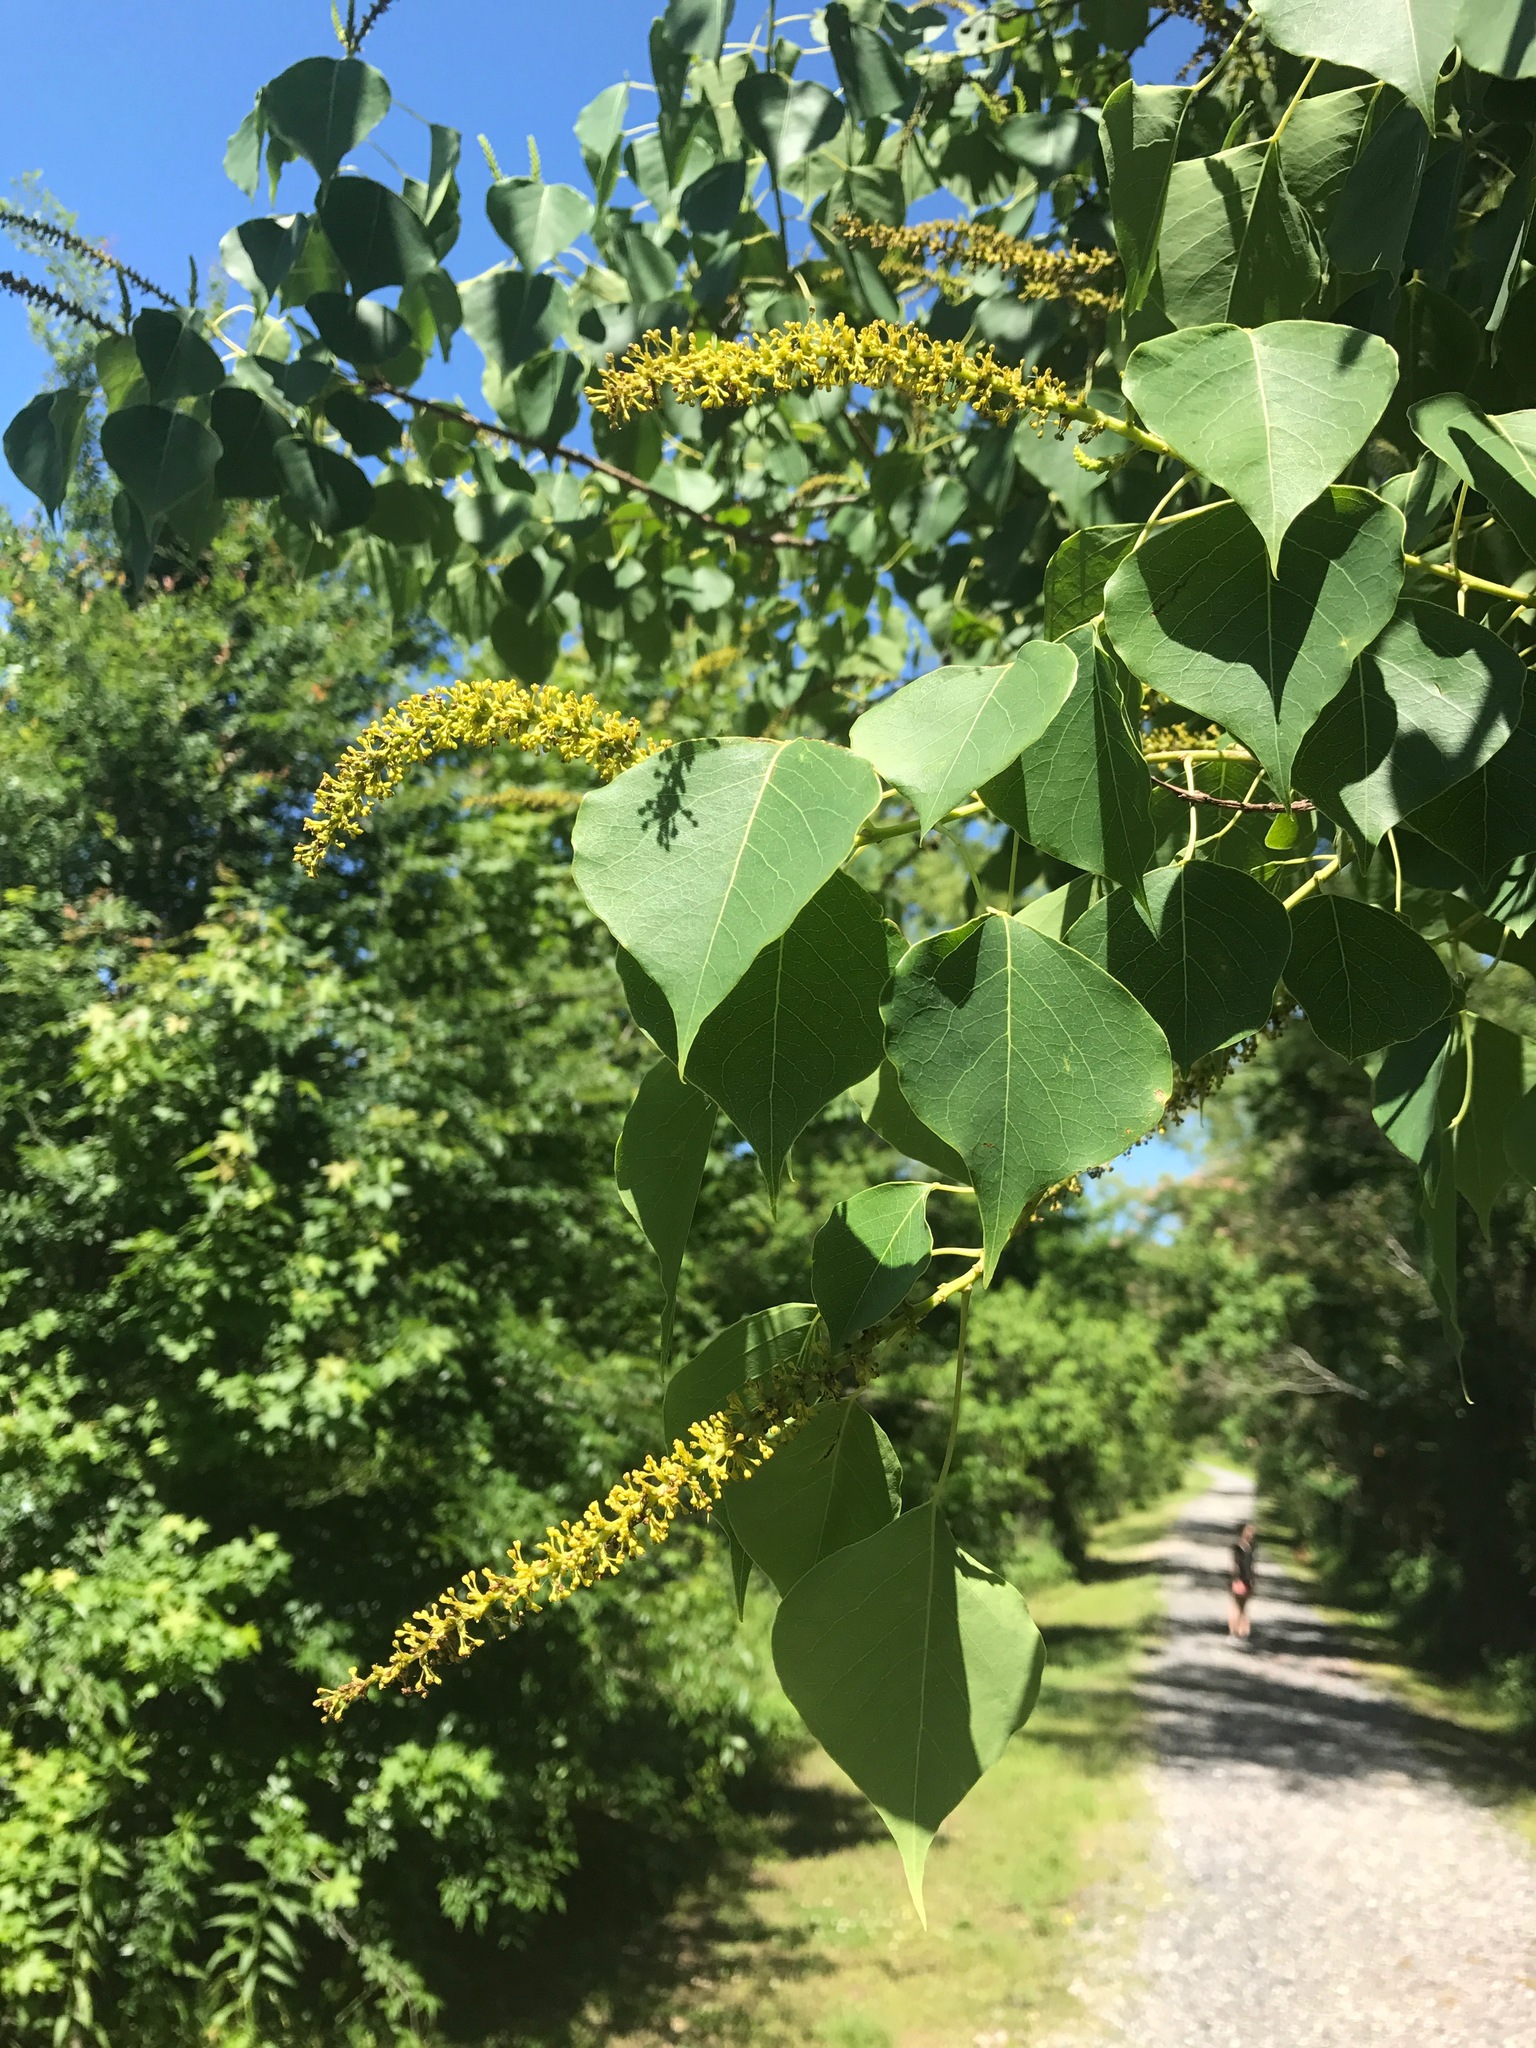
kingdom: Plantae
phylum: Tracheophyta
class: Magnoliopsida
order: Malpighiales
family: Euphorbiaceae
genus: Triadica
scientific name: Triadica sebifera
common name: Chinese tallow
